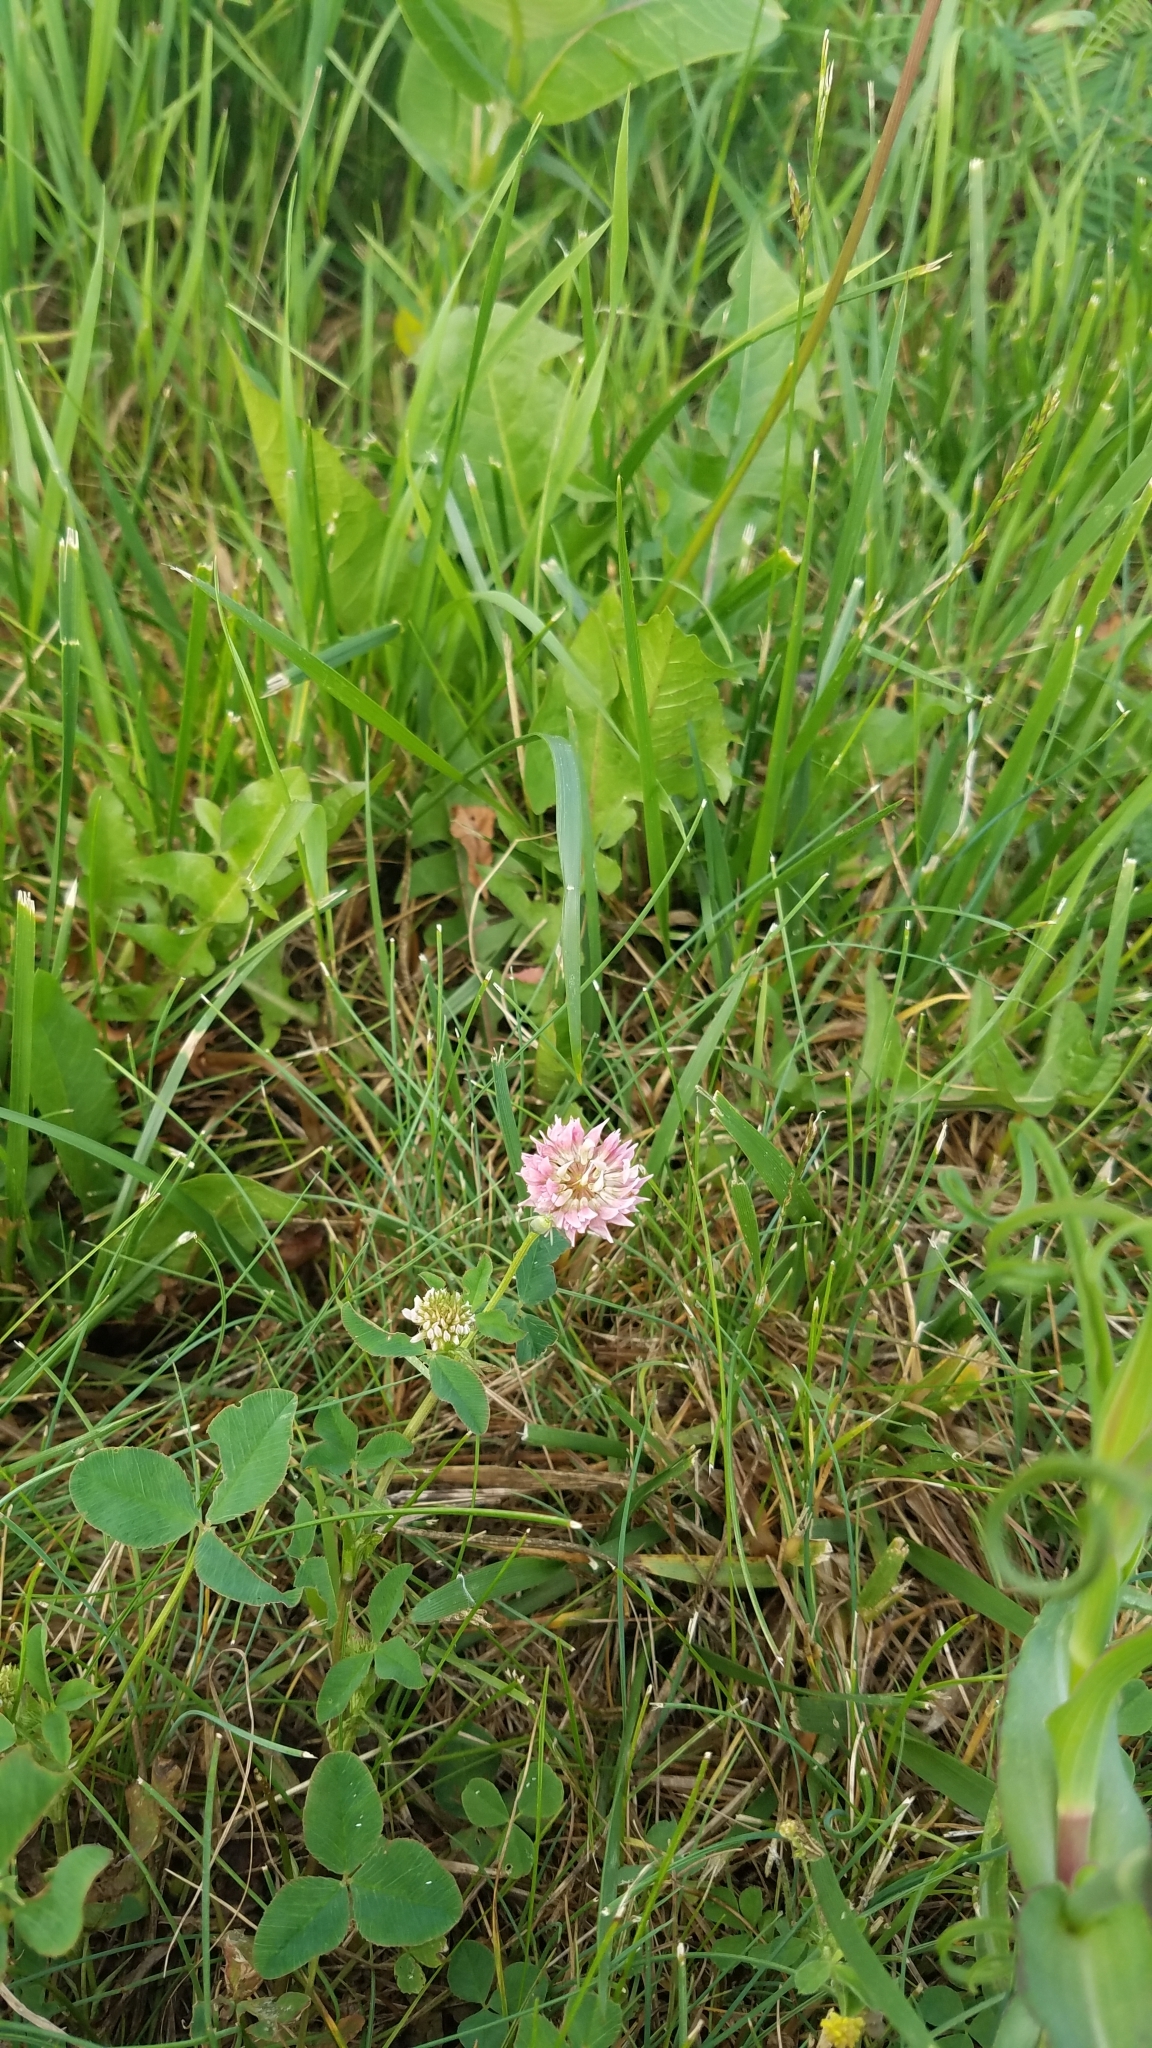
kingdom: Plantae
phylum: Tracheophyta
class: Magnoliopsida
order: Fabales
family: Fabaceae
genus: Trifolium
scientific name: Trifolium hybridum
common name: Alsike clover
